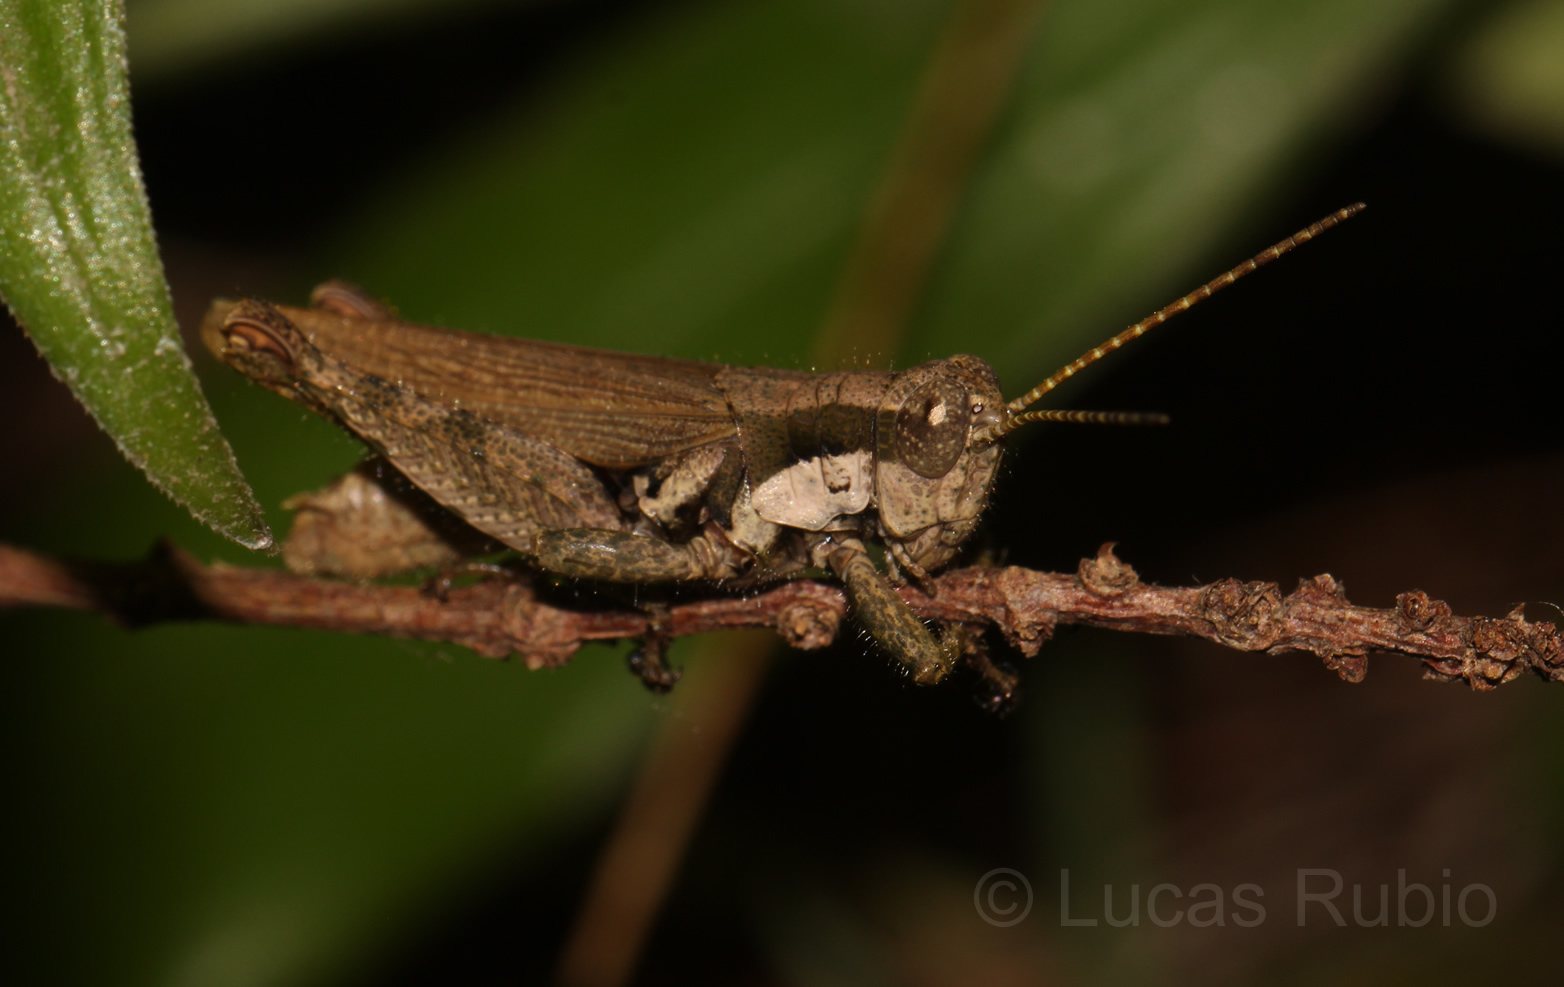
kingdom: Animalia
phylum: Arthropoda
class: Insecta
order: Orthoptera
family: Acrididae
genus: Ronderosia
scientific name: Ronderosia bergii
